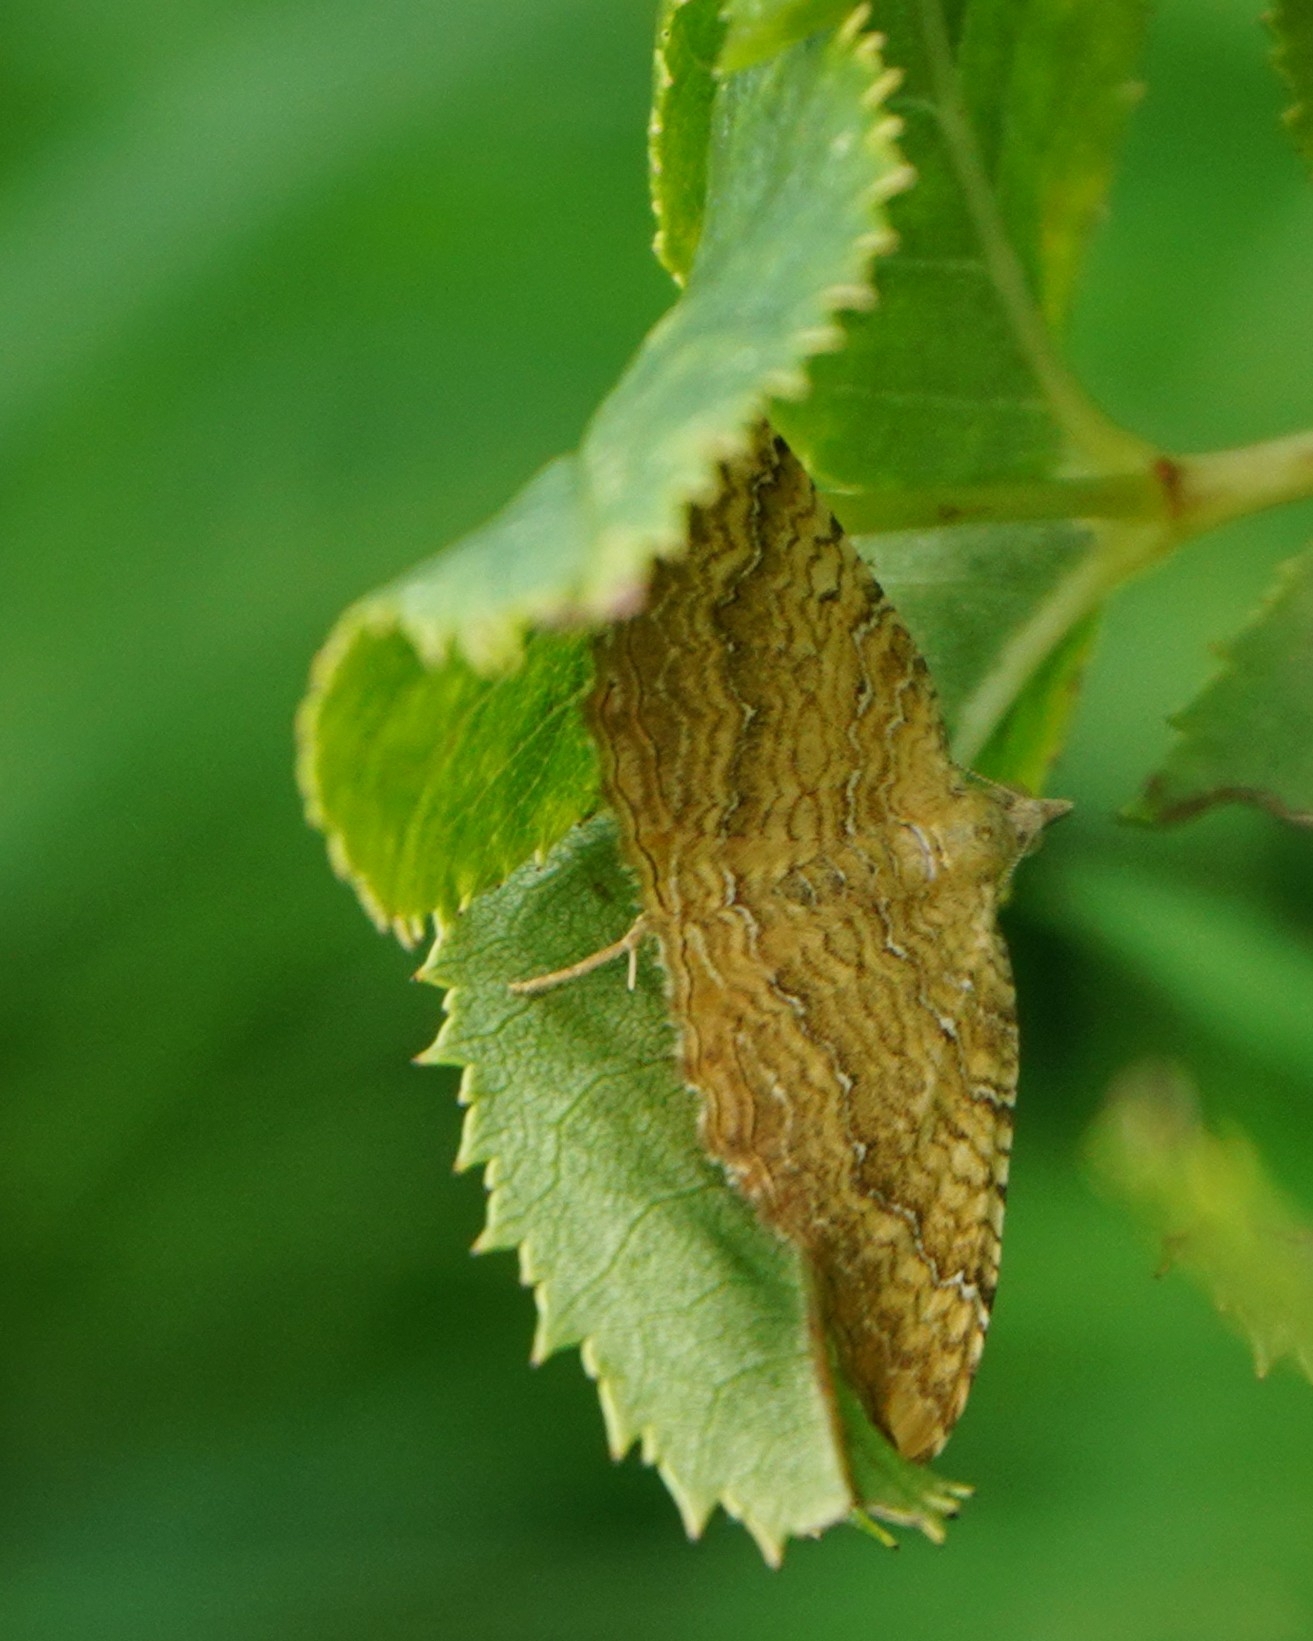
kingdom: Animalia
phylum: Arthropoda
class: Insecta
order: Lepidoptera
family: Geometridae
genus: Camptogramma
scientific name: Camptogramma bilineata
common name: Yellow shell
